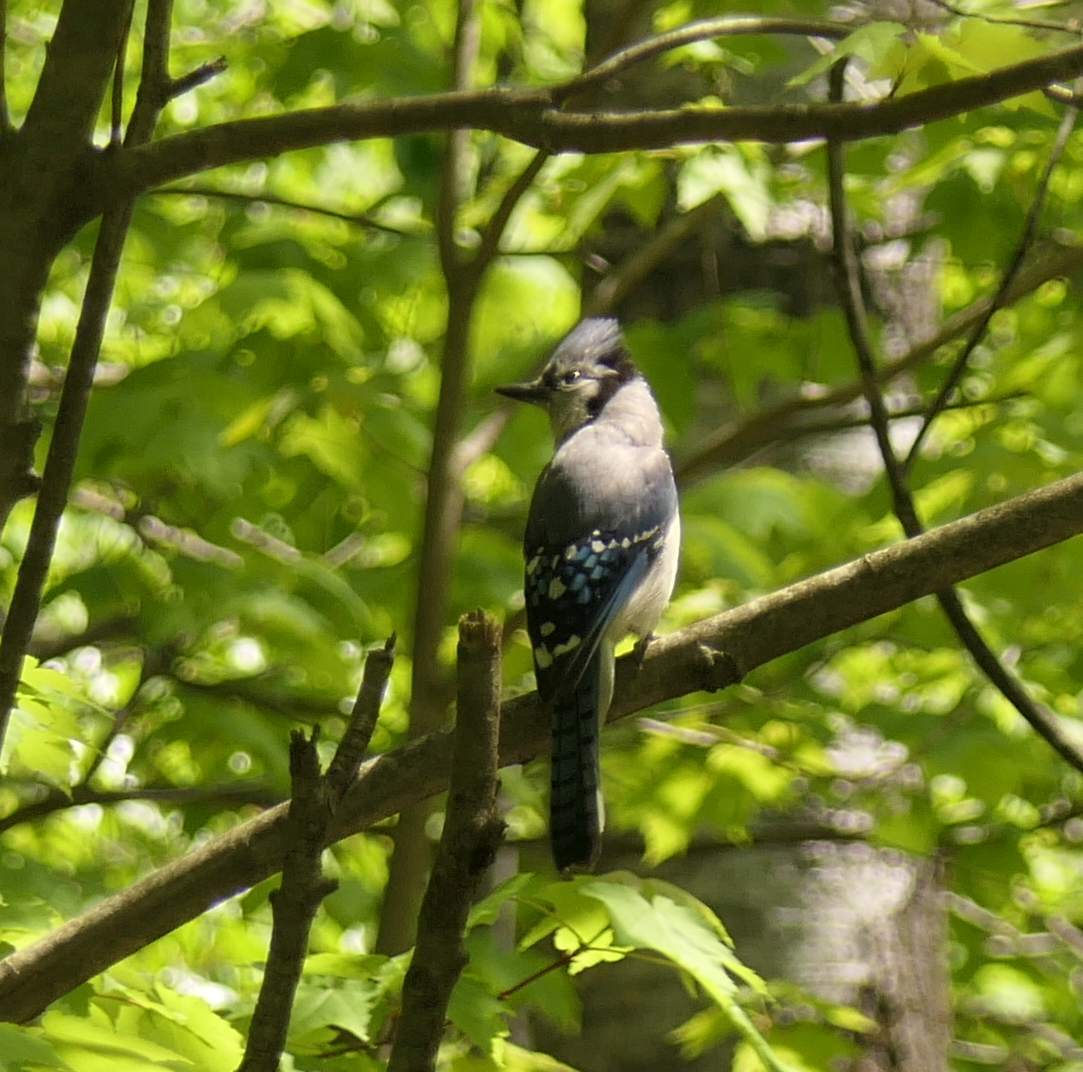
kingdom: Animalia
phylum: Chordata
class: Aves
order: Passeriformes
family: Corvidae
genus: Cyanocitta
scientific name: Cyanocitta cristata
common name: Blue jay
